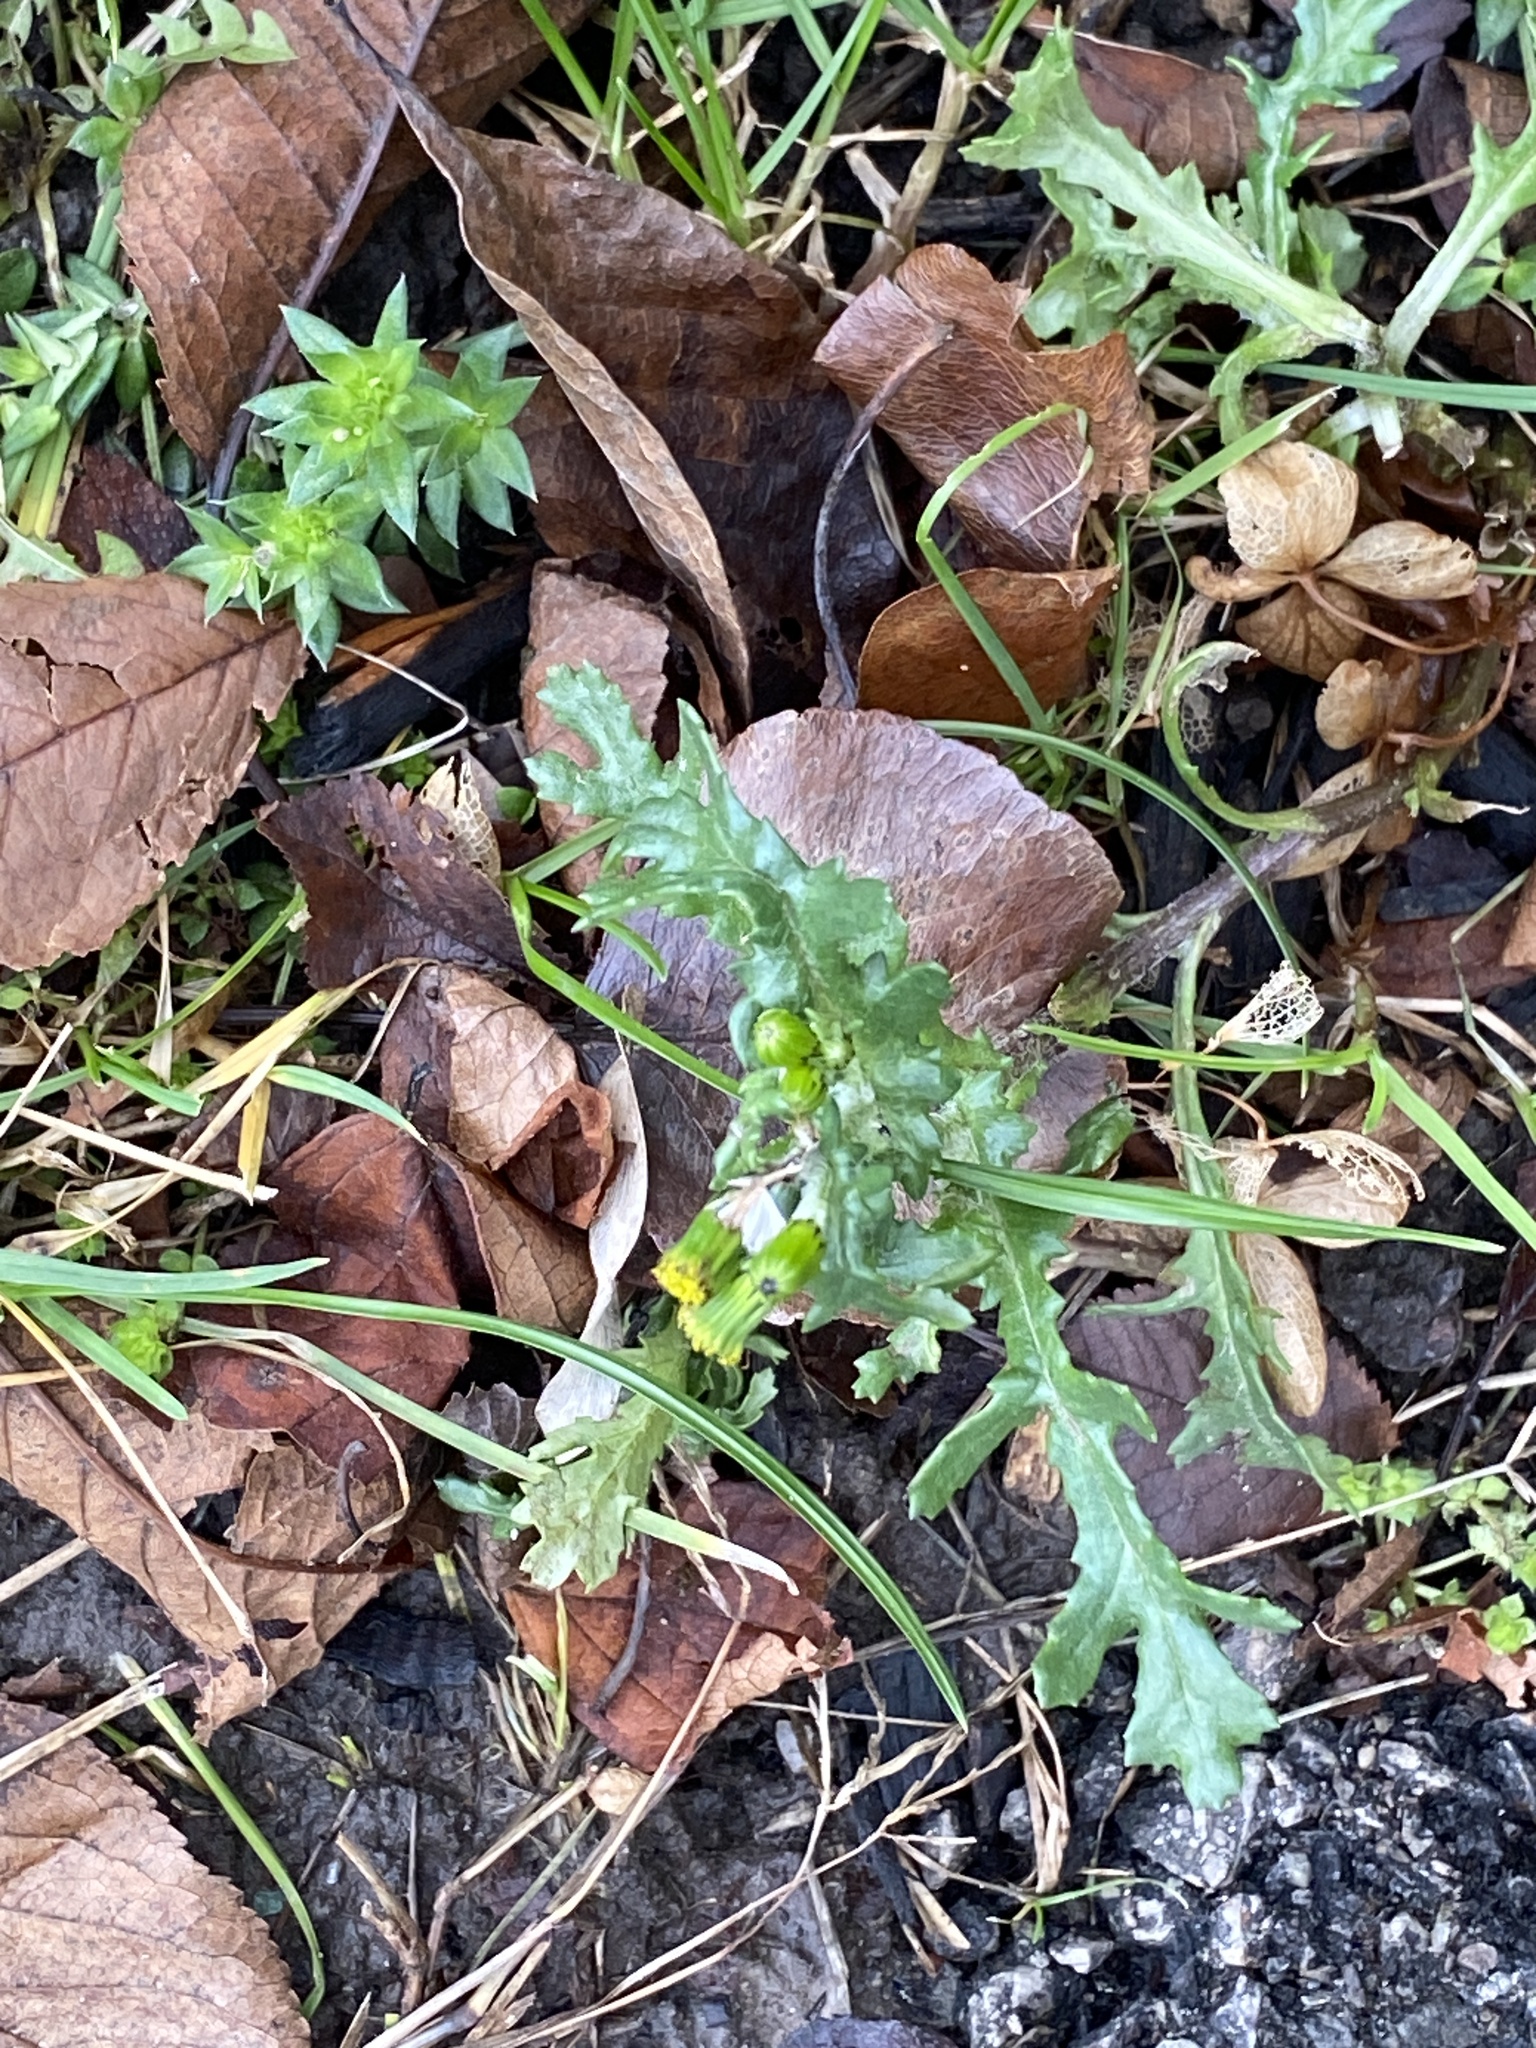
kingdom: Plantae
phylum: Tracheophyta
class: Magnoliopsida
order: Asterales
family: Asteraceae
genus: Senecio
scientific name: Senecio vulgaris
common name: Old-man-in-the-spring
